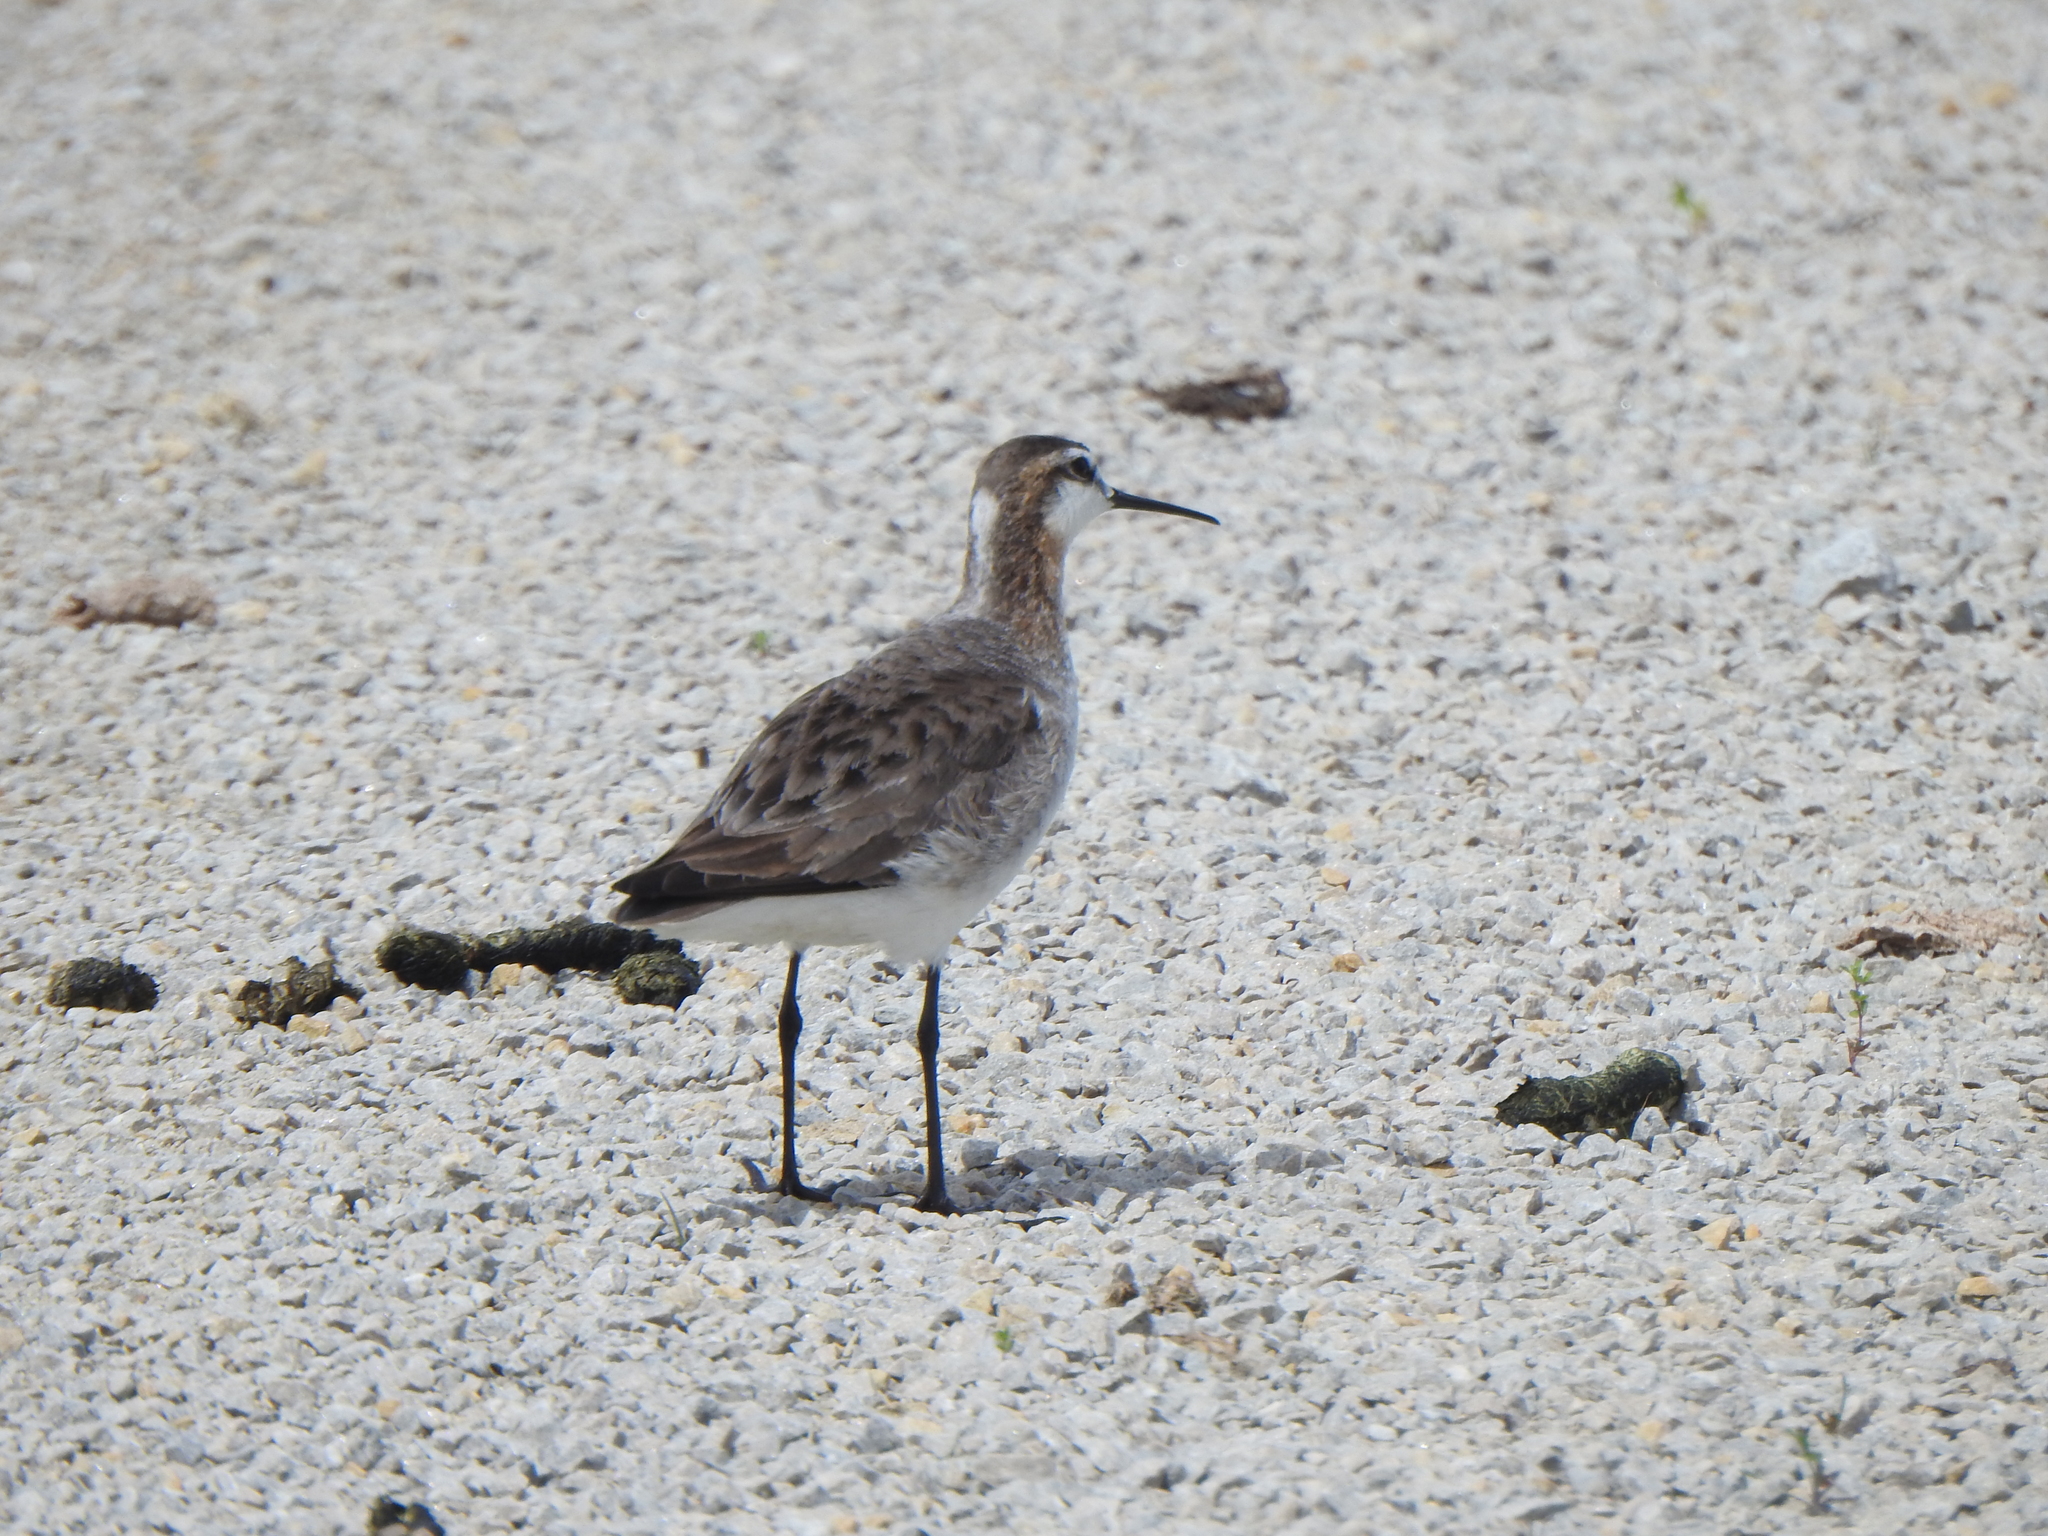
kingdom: Animalia
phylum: Chordata
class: Aves
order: Charadriiformes
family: Scolopacidae
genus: Phalaropus
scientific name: Phalaropus tricolor
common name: Wilson's phalarope
